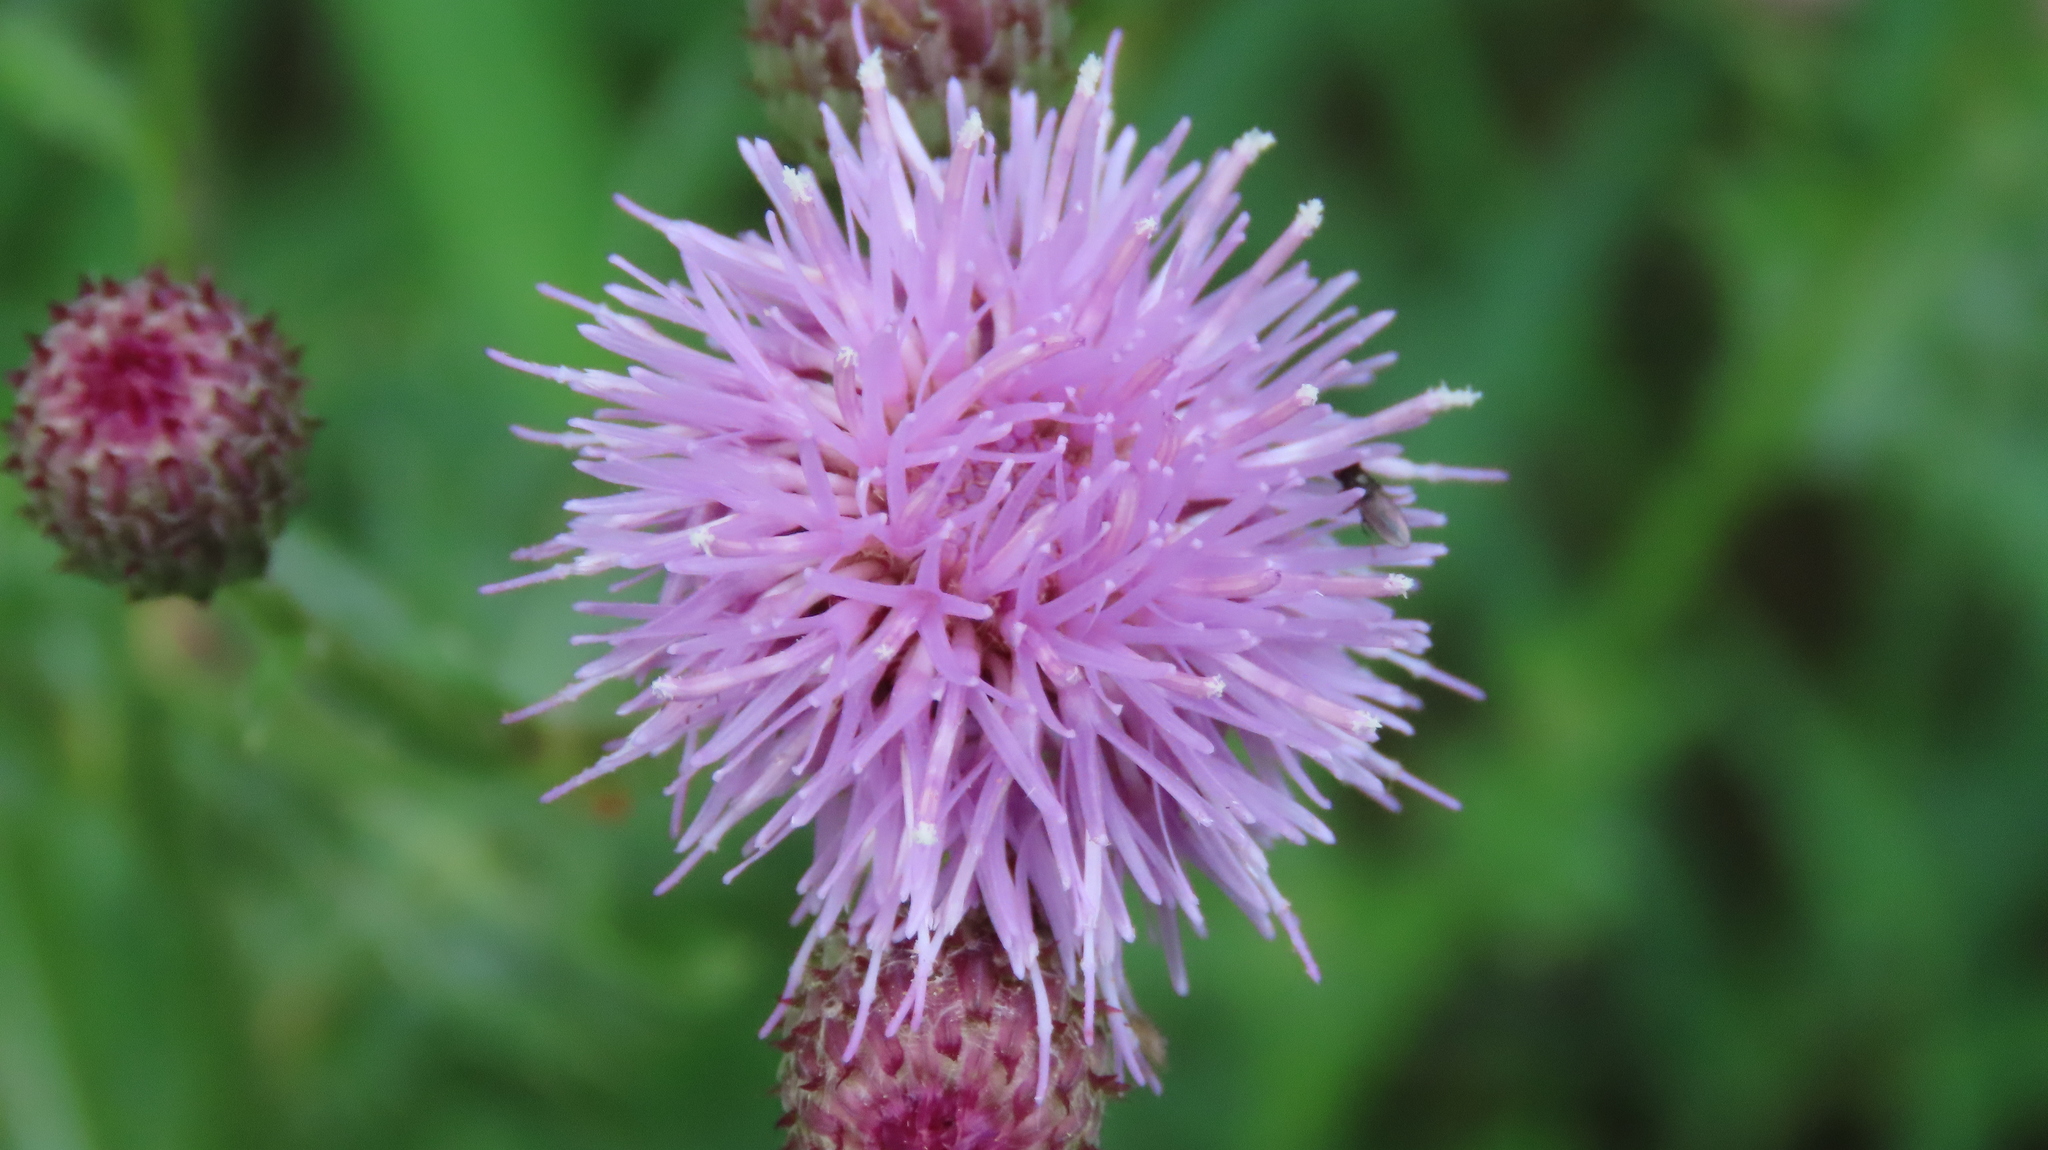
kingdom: Plantae
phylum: Tracheophyta
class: Magnoliopsida
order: Asterales
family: Asteraceae
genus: Cirsium
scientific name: Cirsium arvense
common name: Creeping thistle
